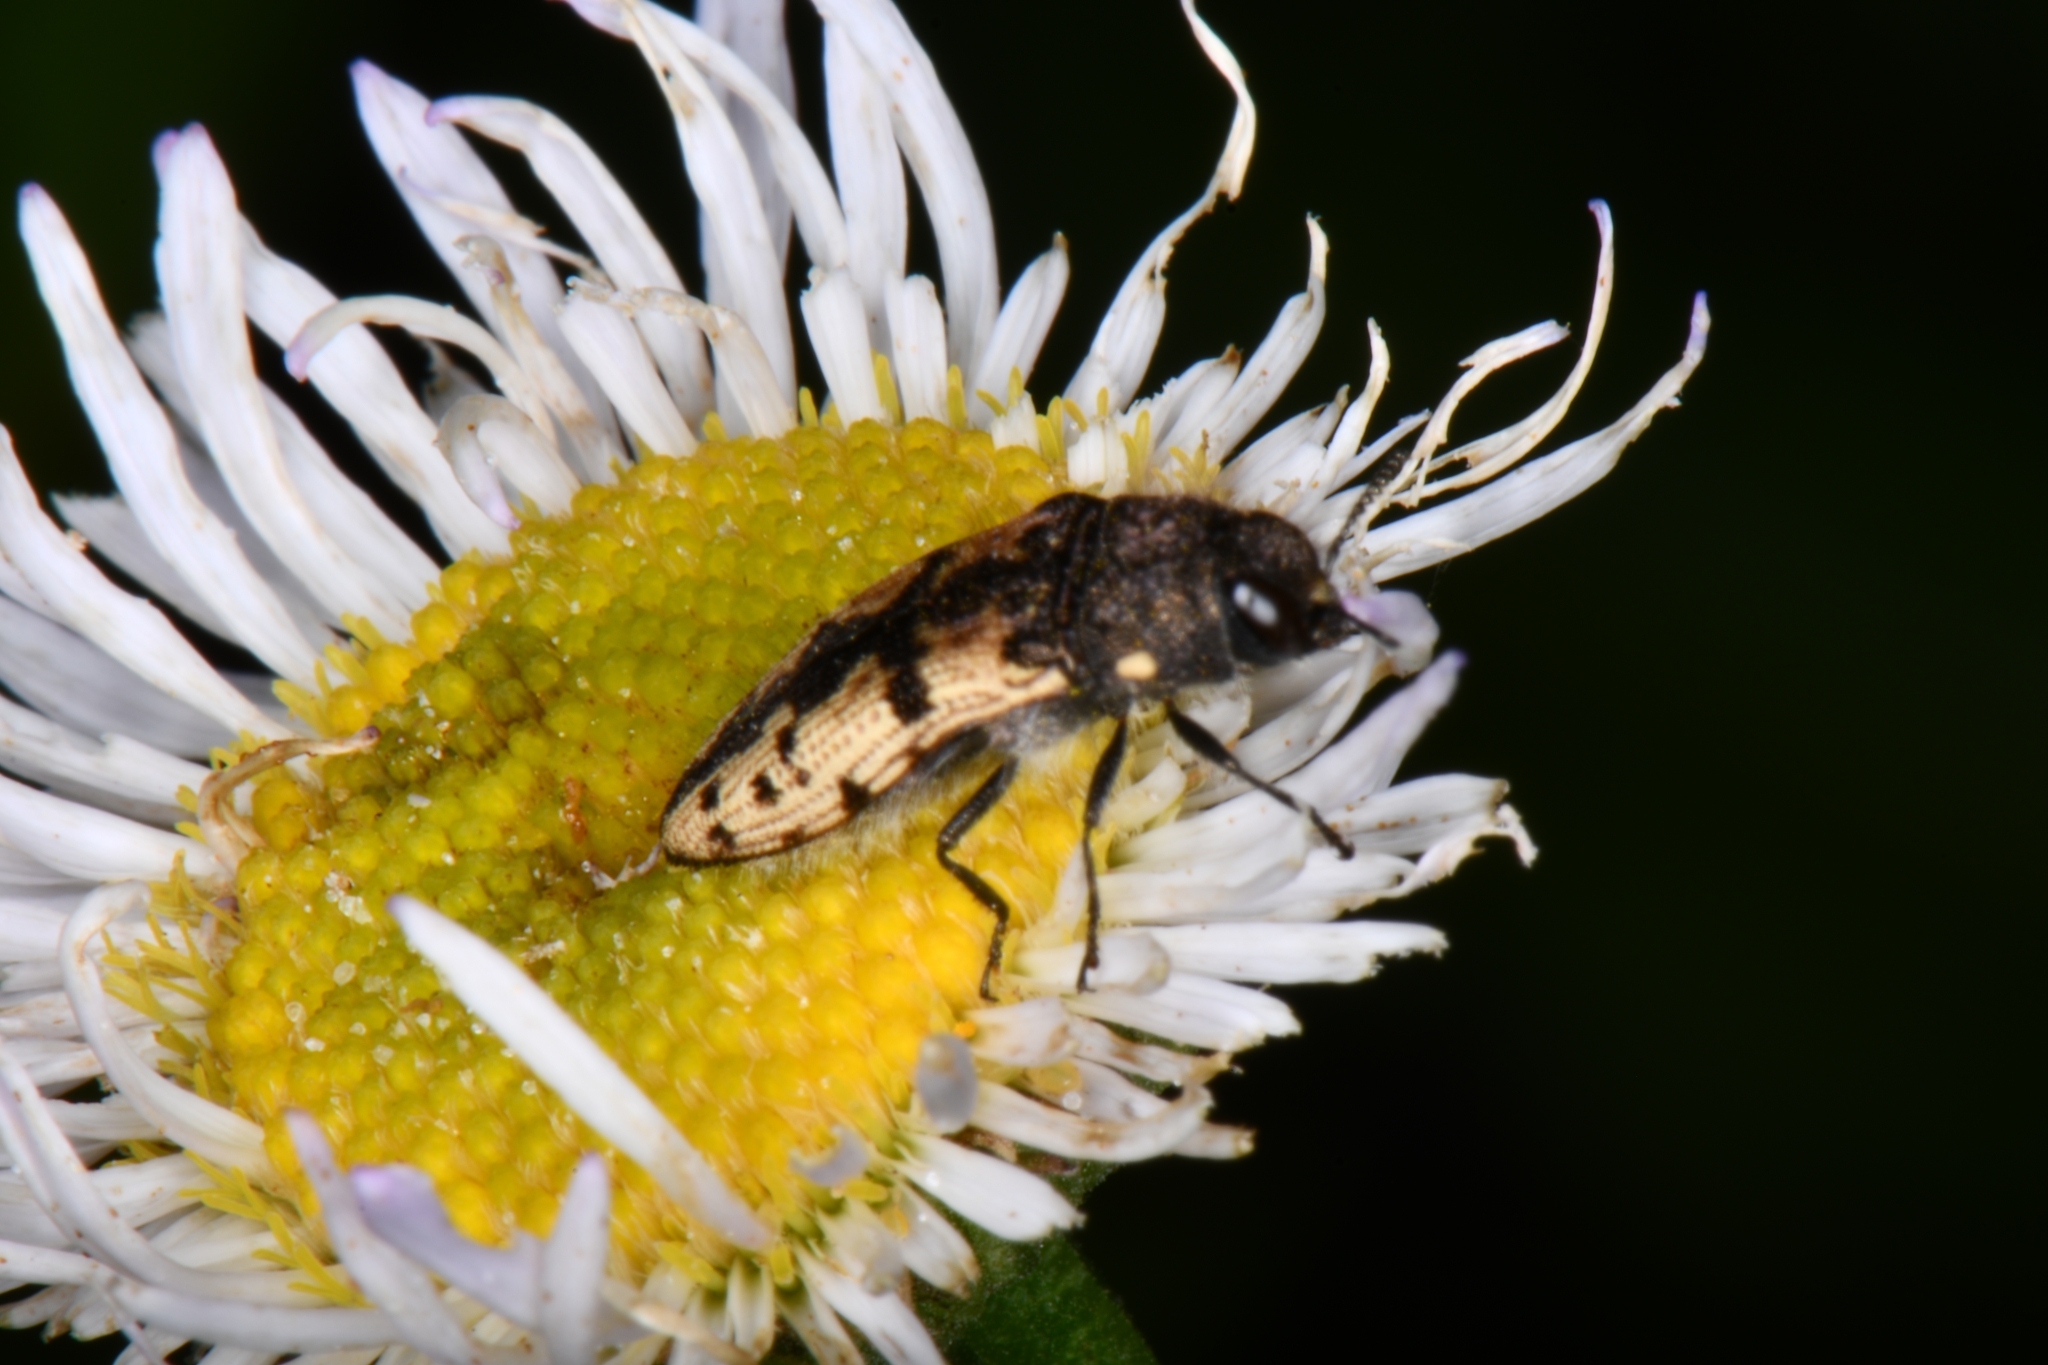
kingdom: Animalia
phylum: Arthropoda
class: Insecta
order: Coleoptera
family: Buprestidae
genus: Acmaeodera
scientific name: Acmaeodera diffusa
